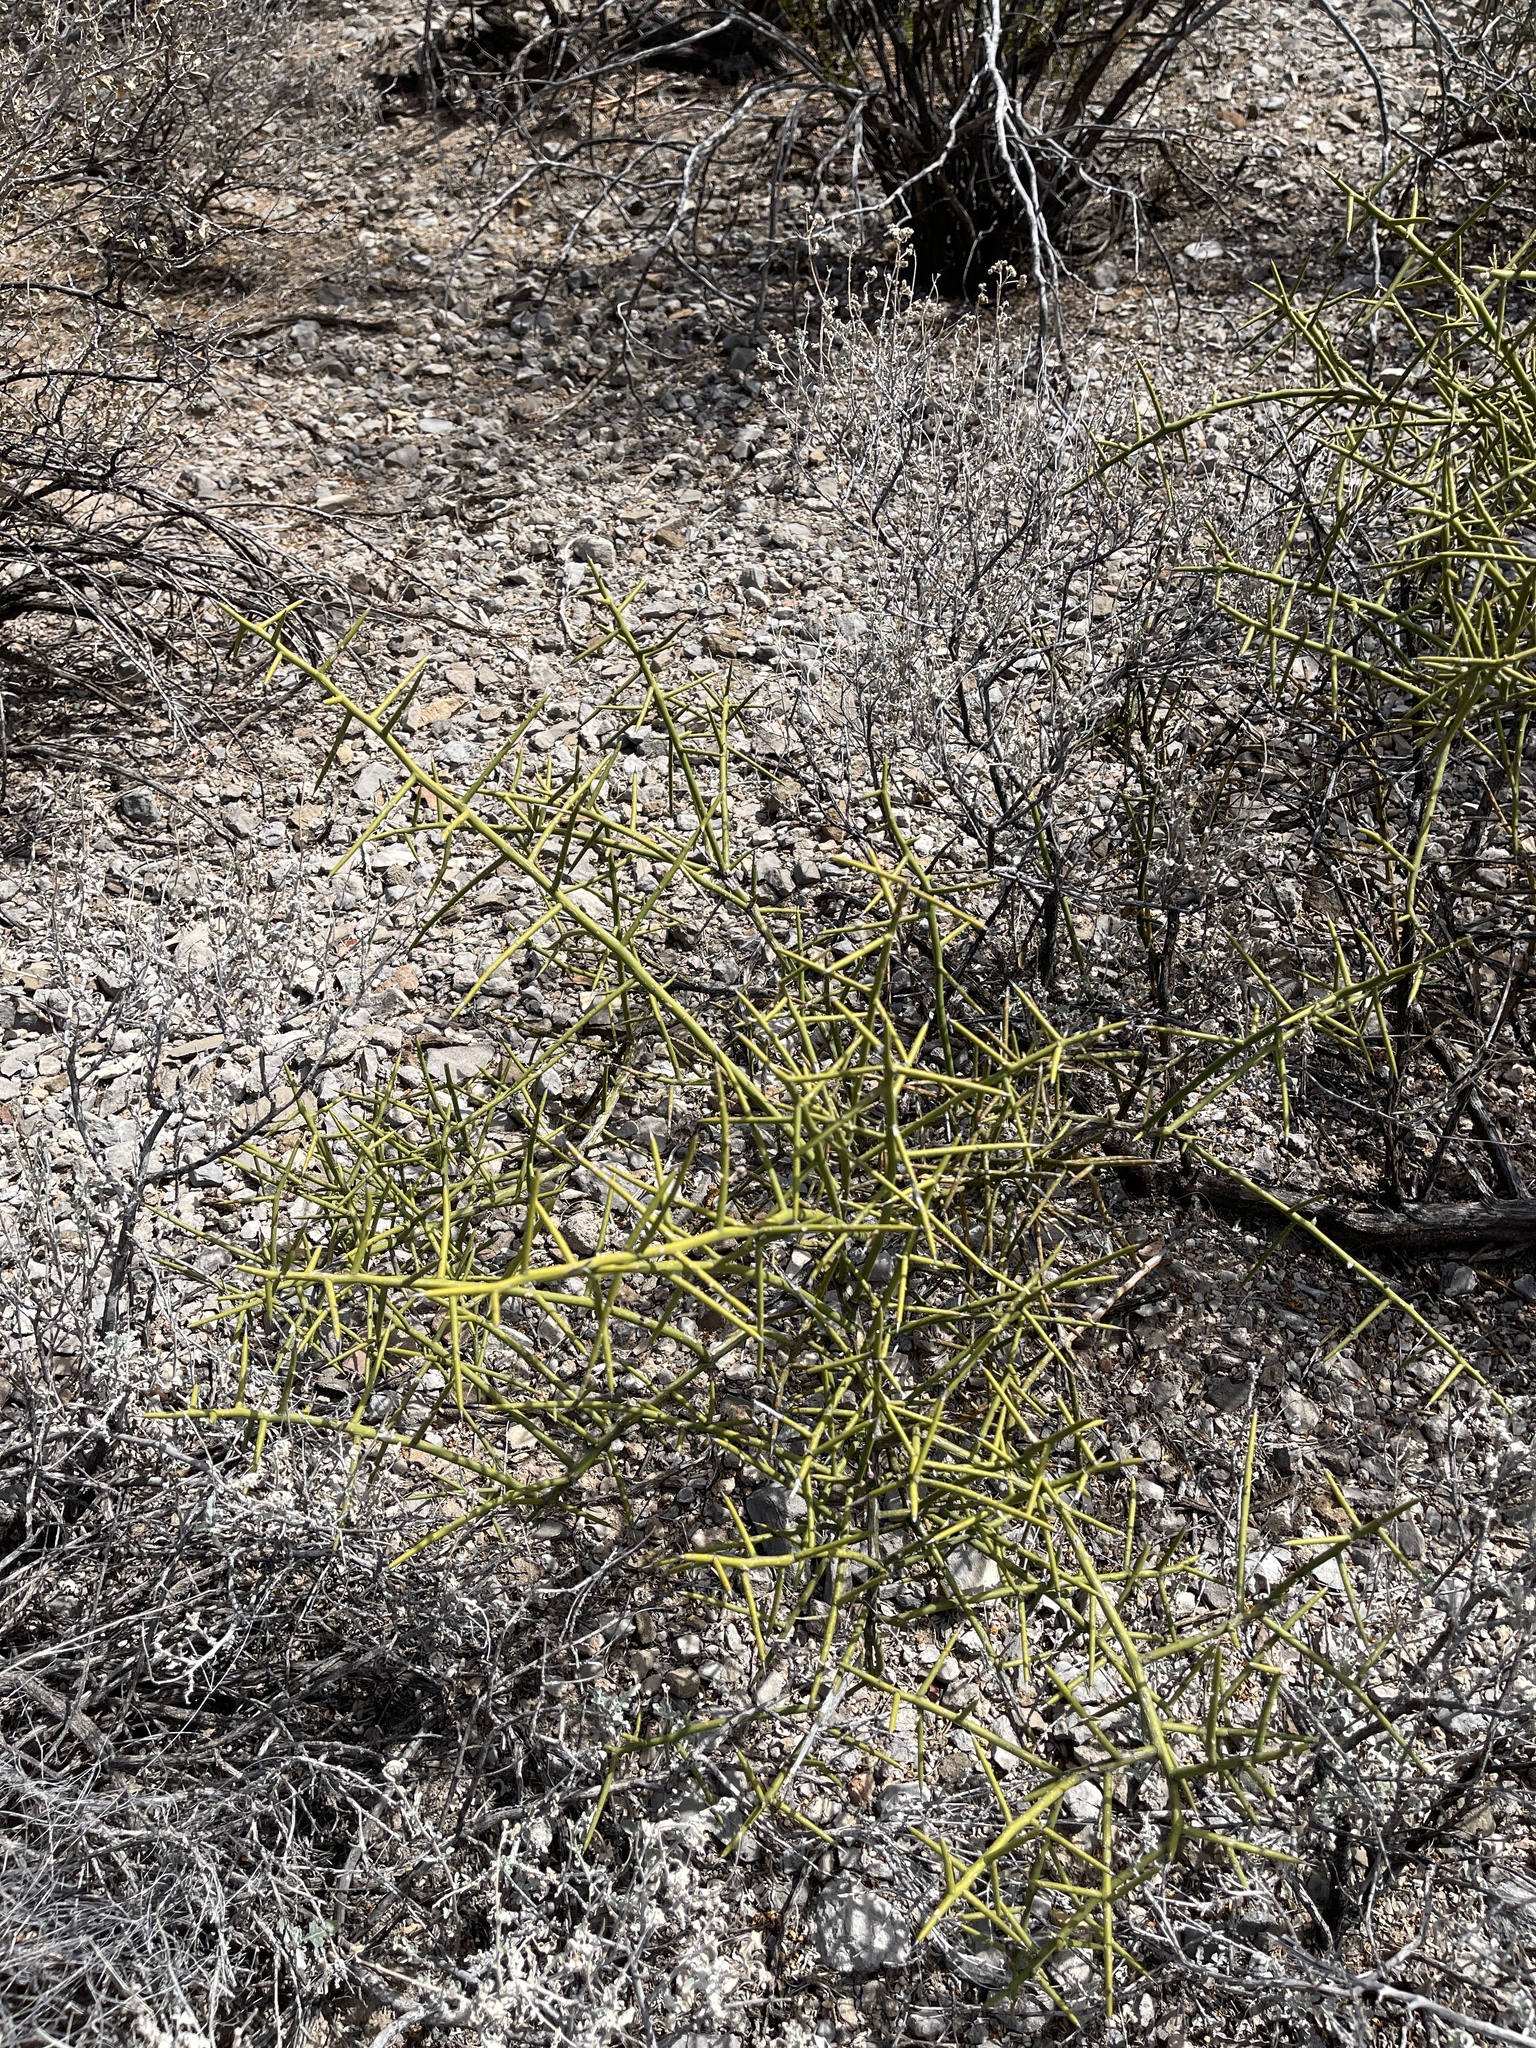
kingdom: Plantae
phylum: Tracheophyta
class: Magnoliopsida
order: Brassicales
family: Koeberliniaceae
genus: Koeberlinia
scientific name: Koeberlinia spinosa
